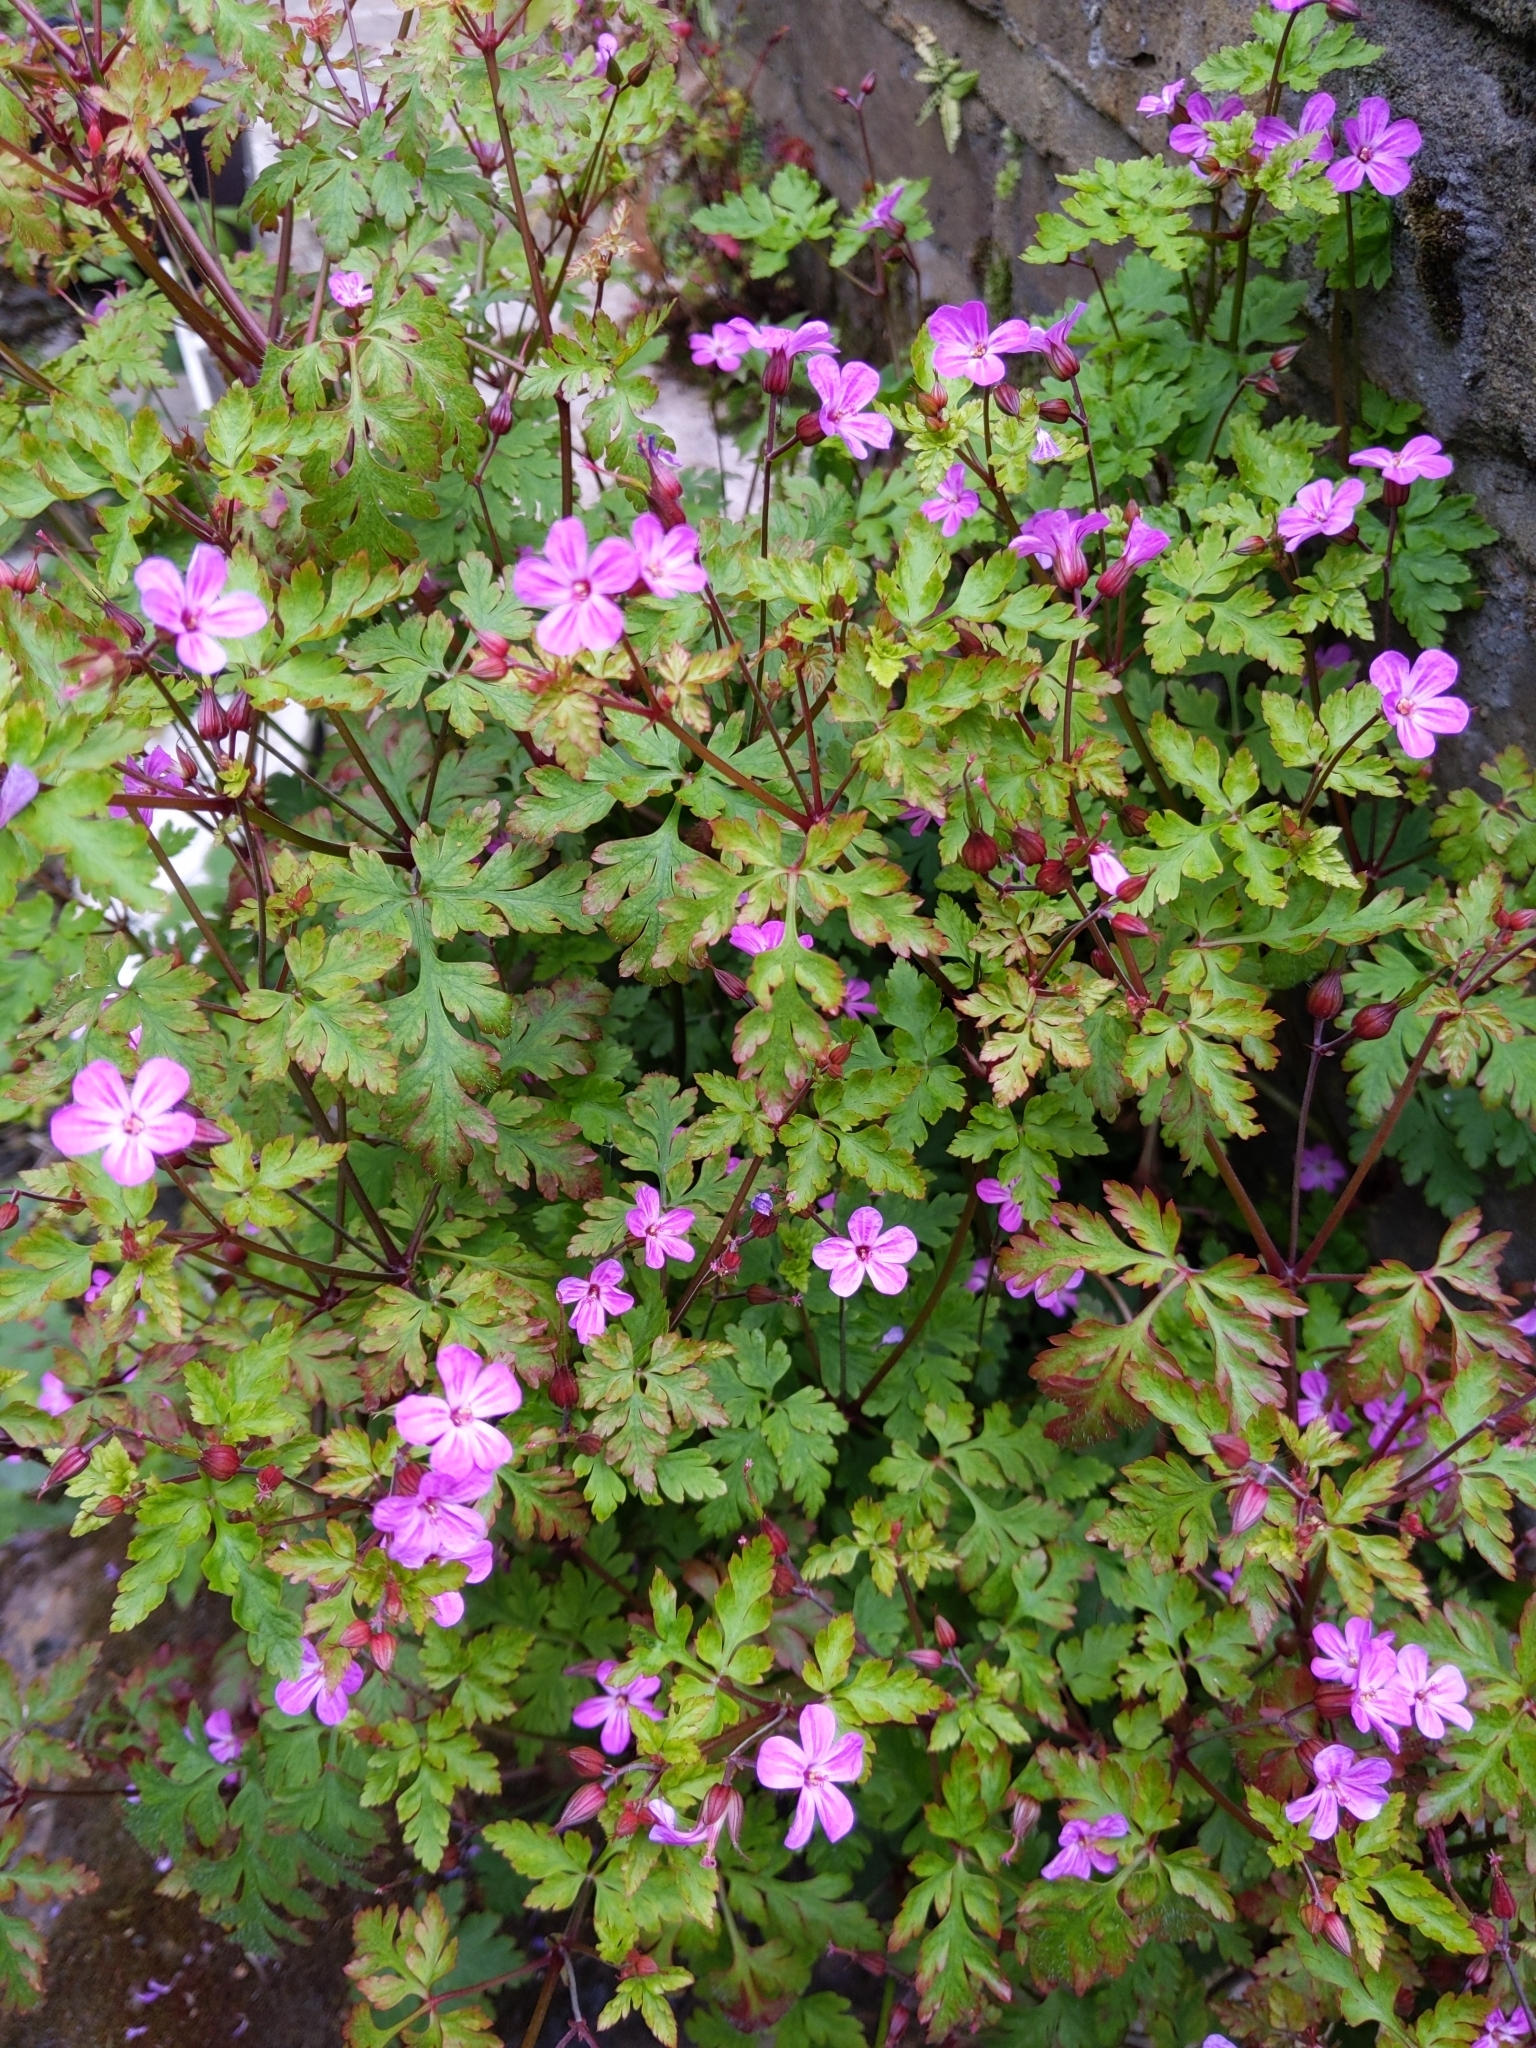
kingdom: Plantae
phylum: Tracheophyta
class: Magnoliopsida
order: Geraniales
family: Geraniaceae
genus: Geranium
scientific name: Geranium robertianum
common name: Herb-robert
